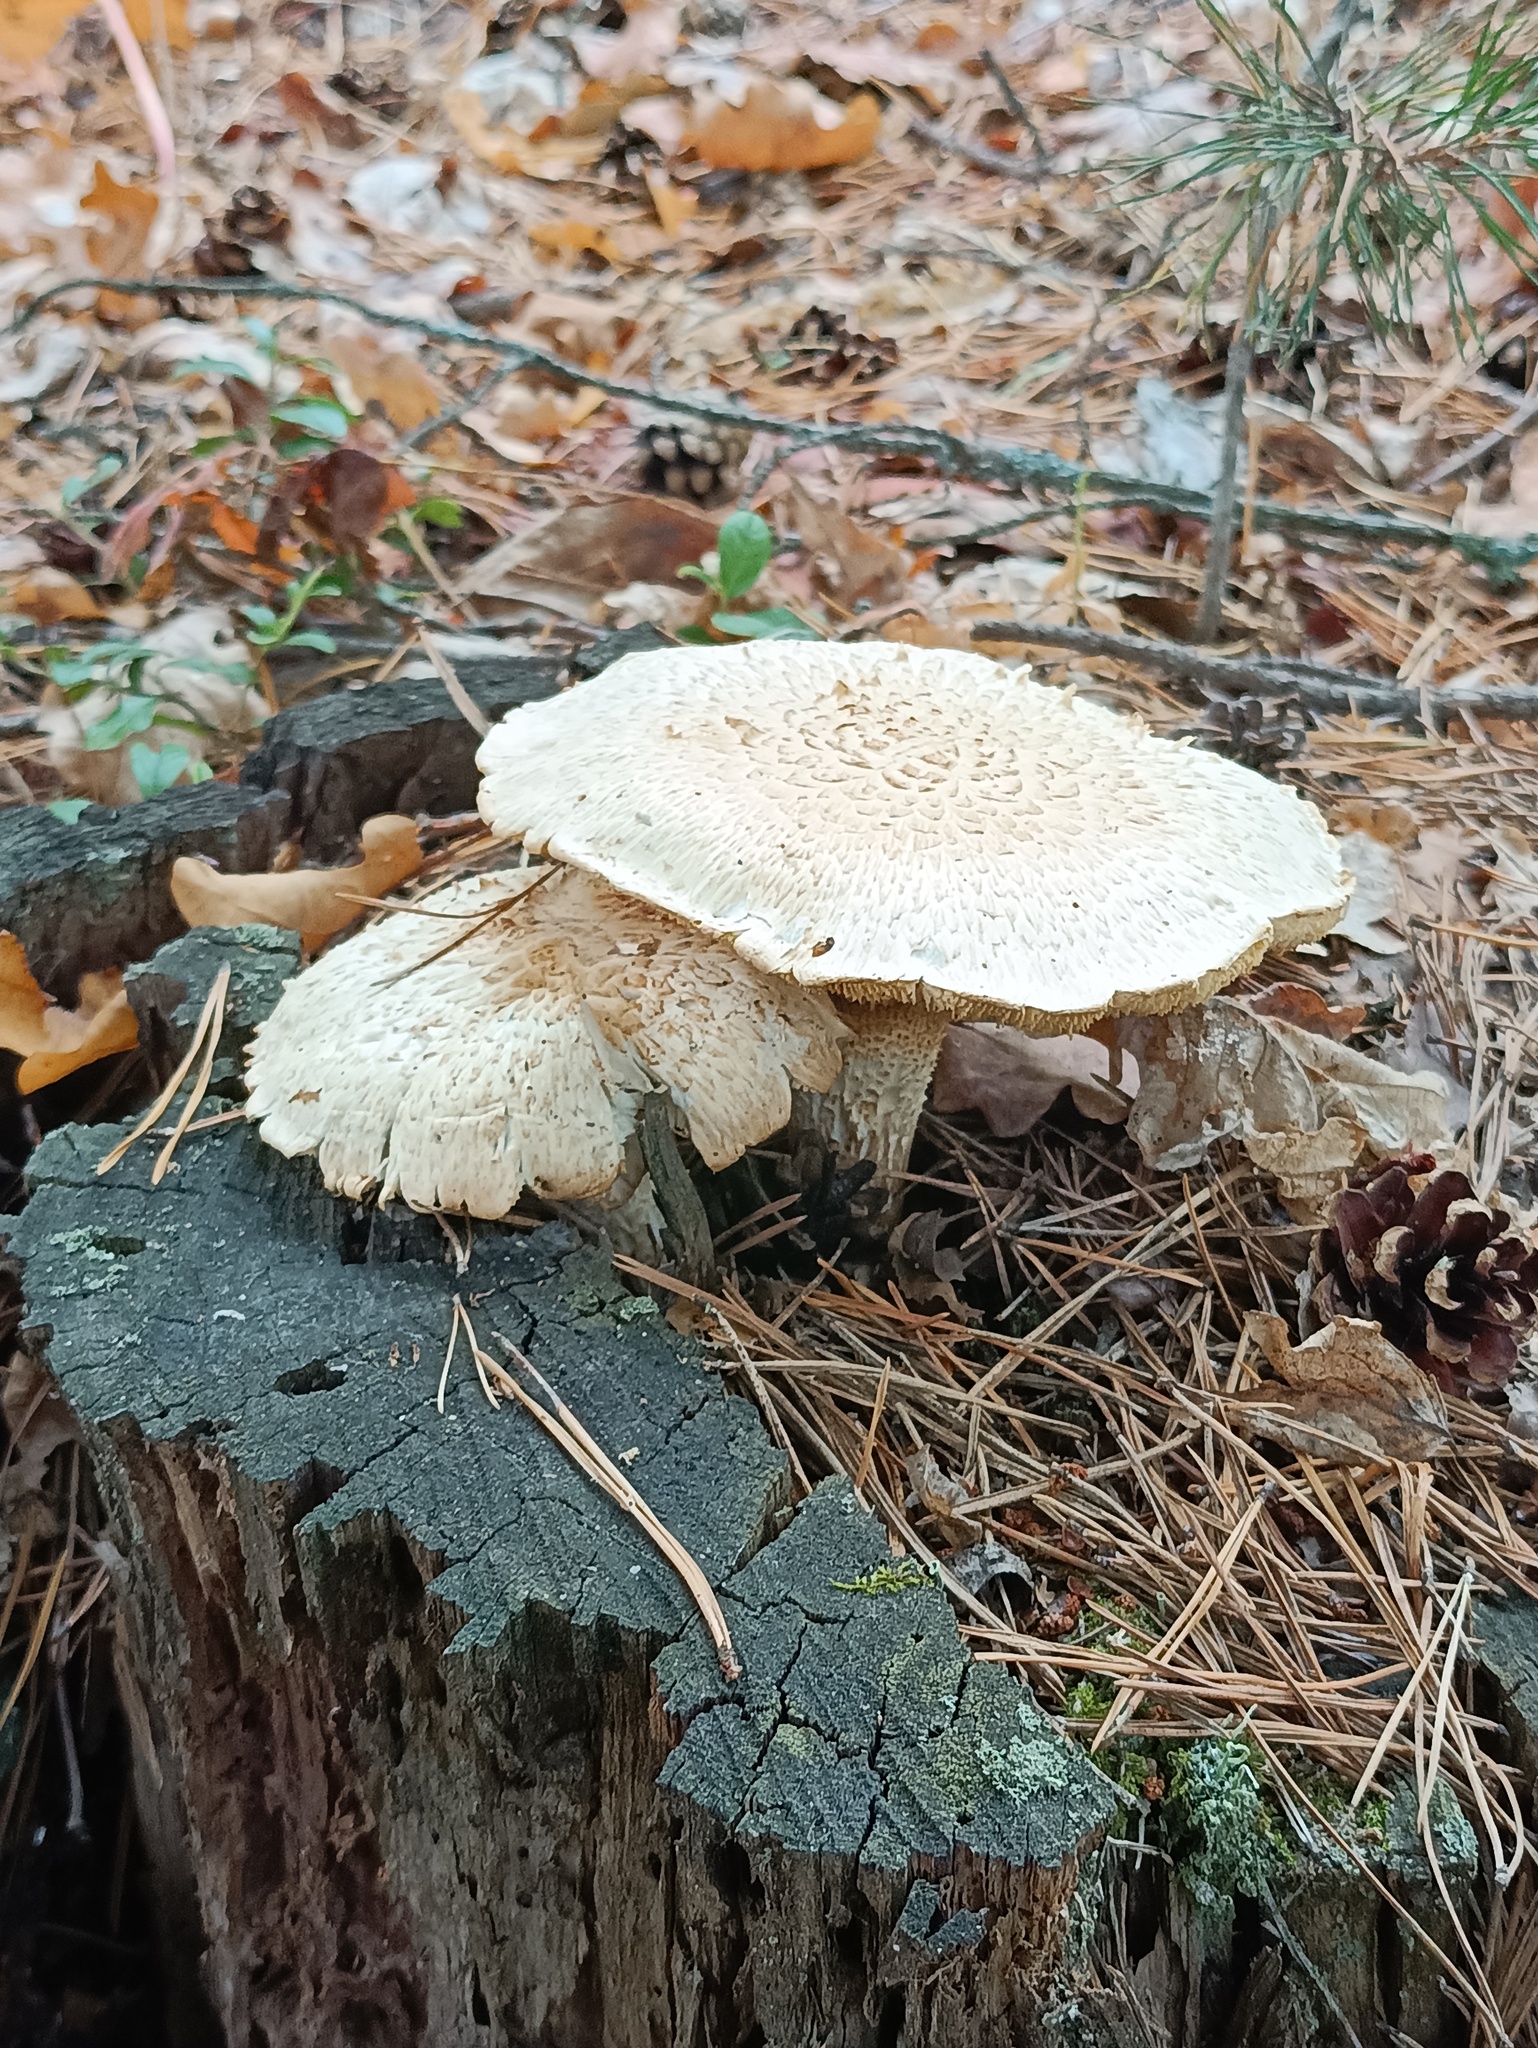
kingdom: Fungi
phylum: Basidiomycota
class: Agaricomycetes
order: Gloeophyllales
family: Gloeophyllaceae
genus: Neolentinus
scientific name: Neolentinus lepideus
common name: Scaly sawgill
